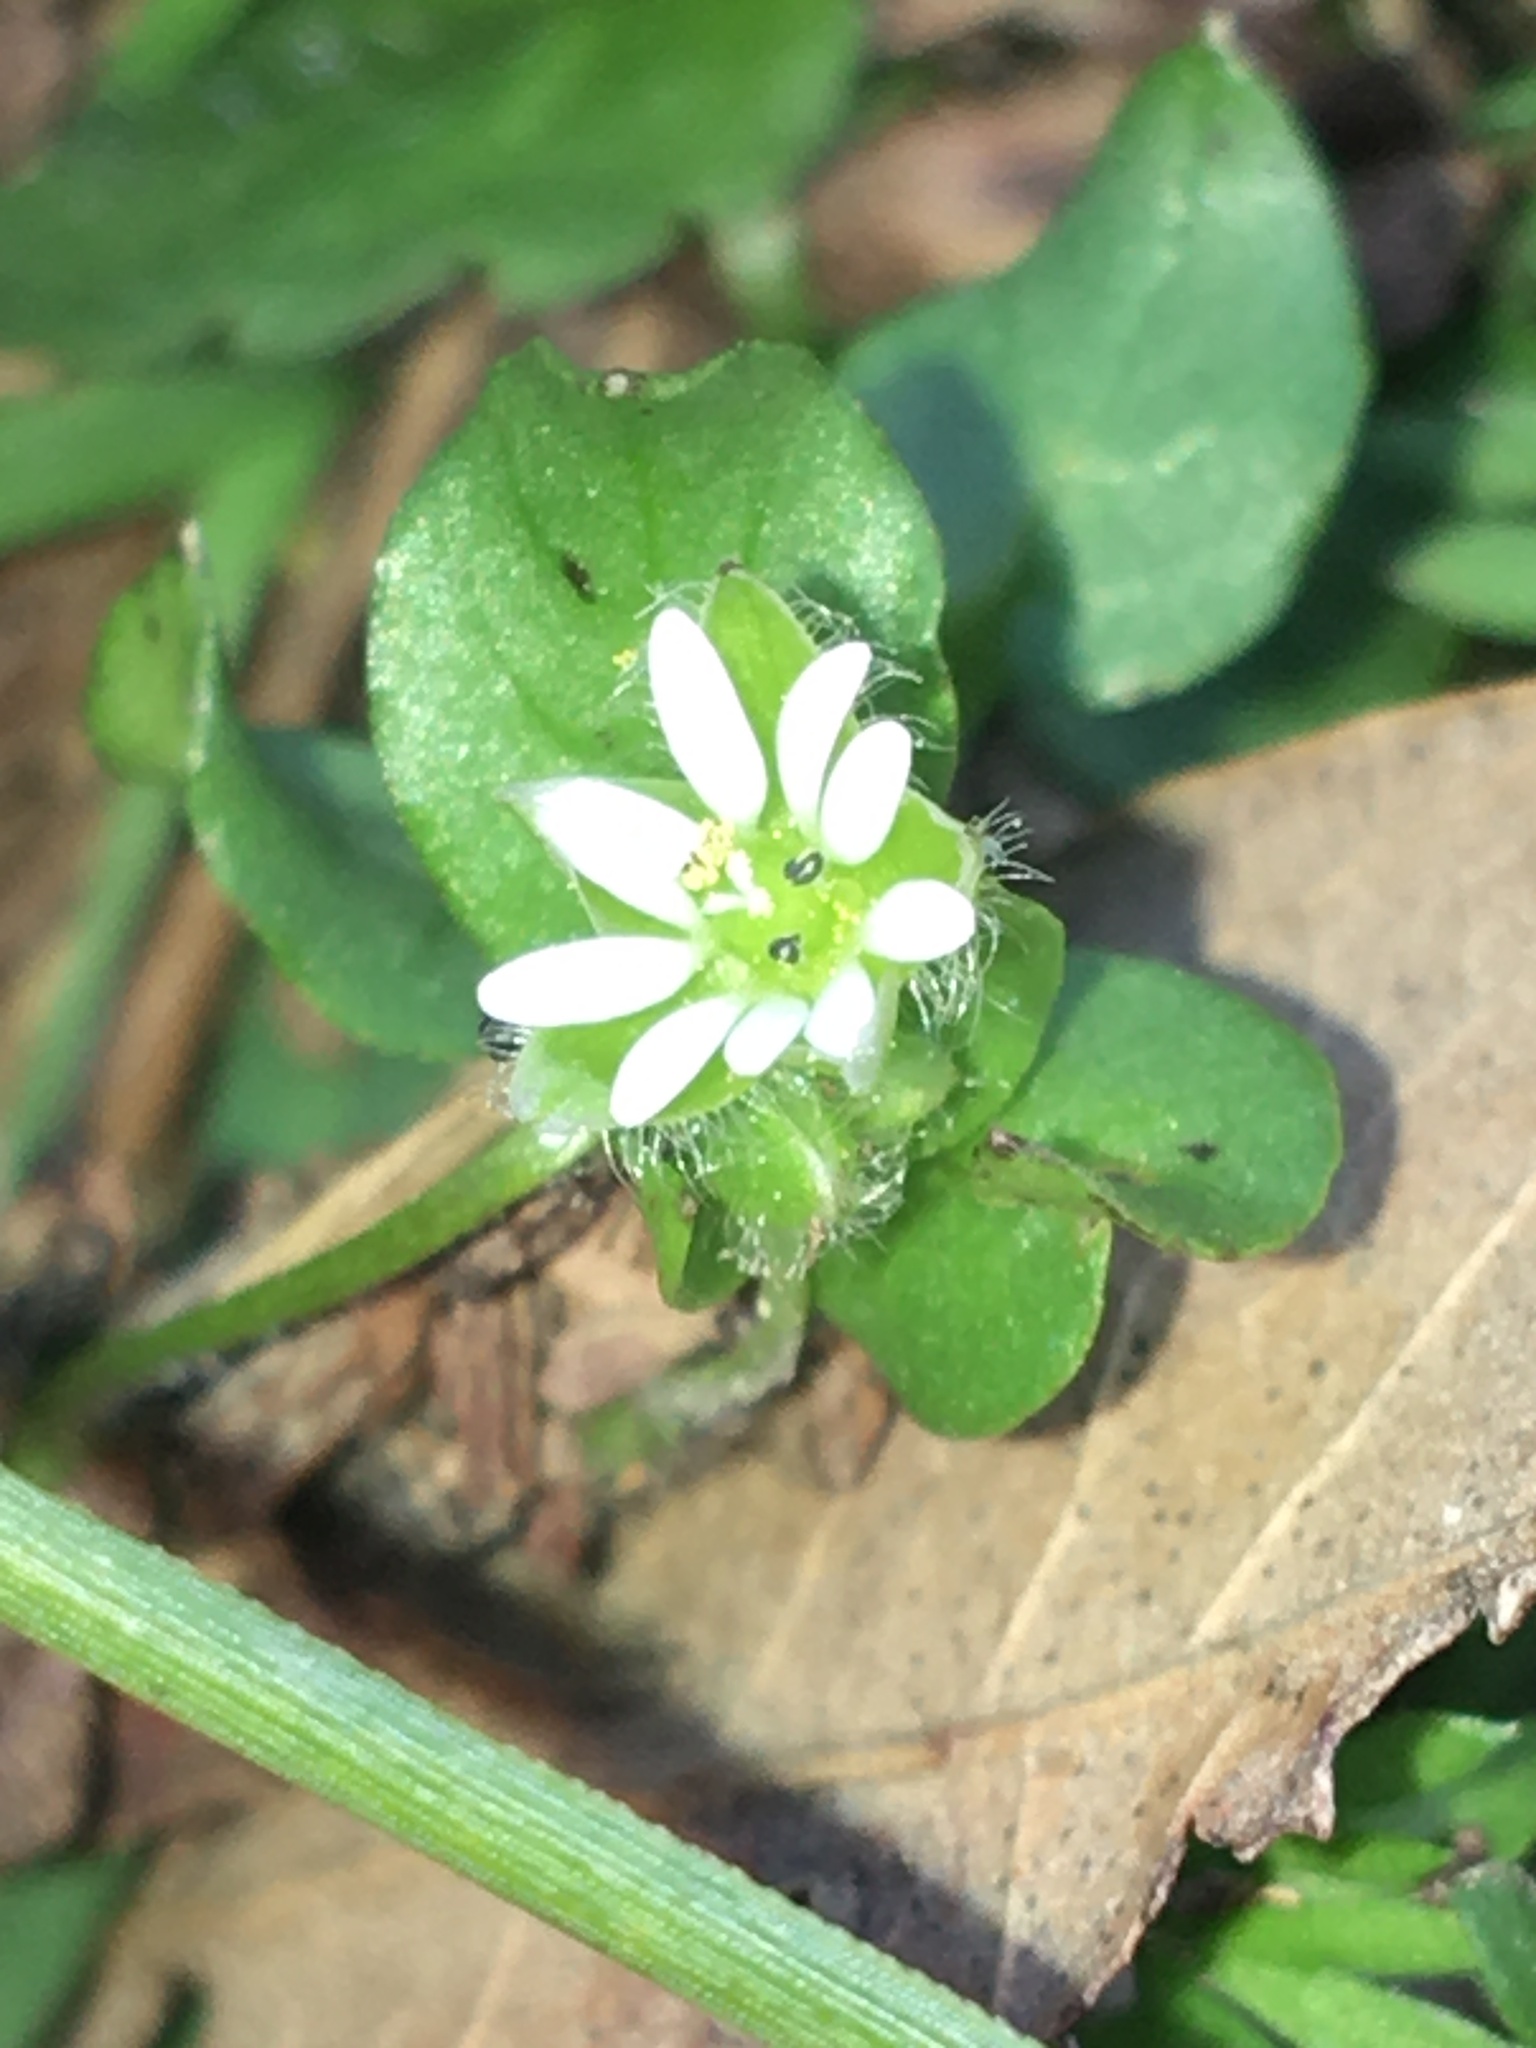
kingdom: Plantae
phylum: Tracheophyta
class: Magnoliopsida
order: Caryophyllales
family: Caryophyllaceae
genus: Stellaria
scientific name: Stellaria media
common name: Common chickweed
